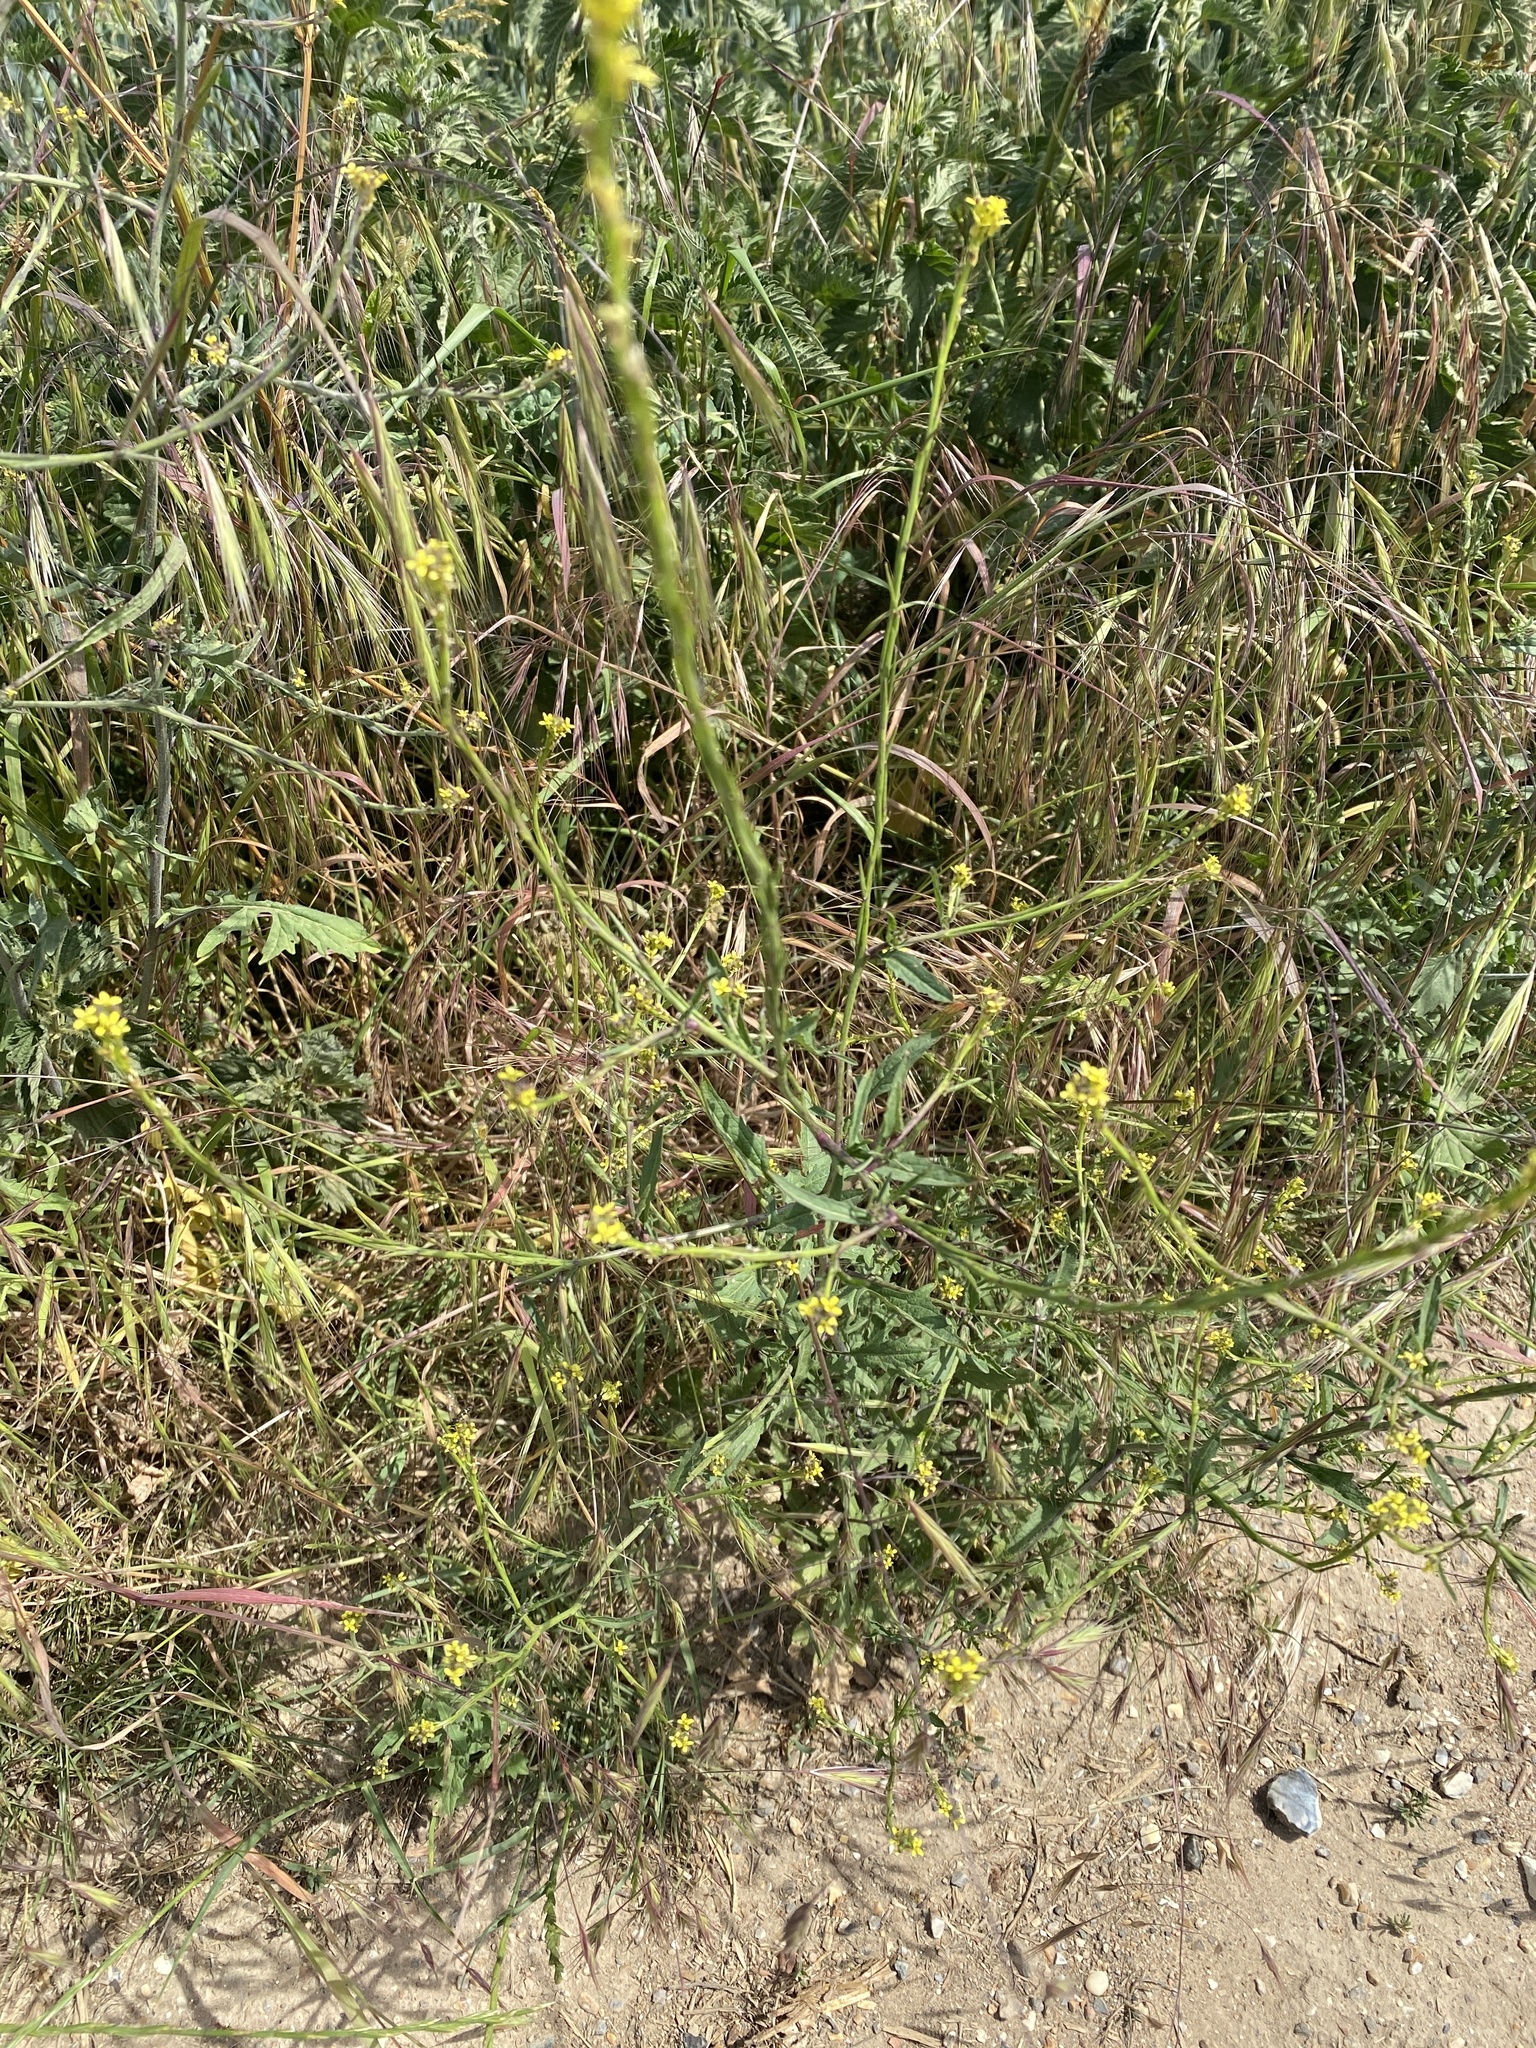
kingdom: Plantae
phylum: Tracheophyta
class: Magnoliopsida
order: Brassicales
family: Brassicaceae
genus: Sisymbrium
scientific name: Sisymbrium officinale
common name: Hedge mustard
